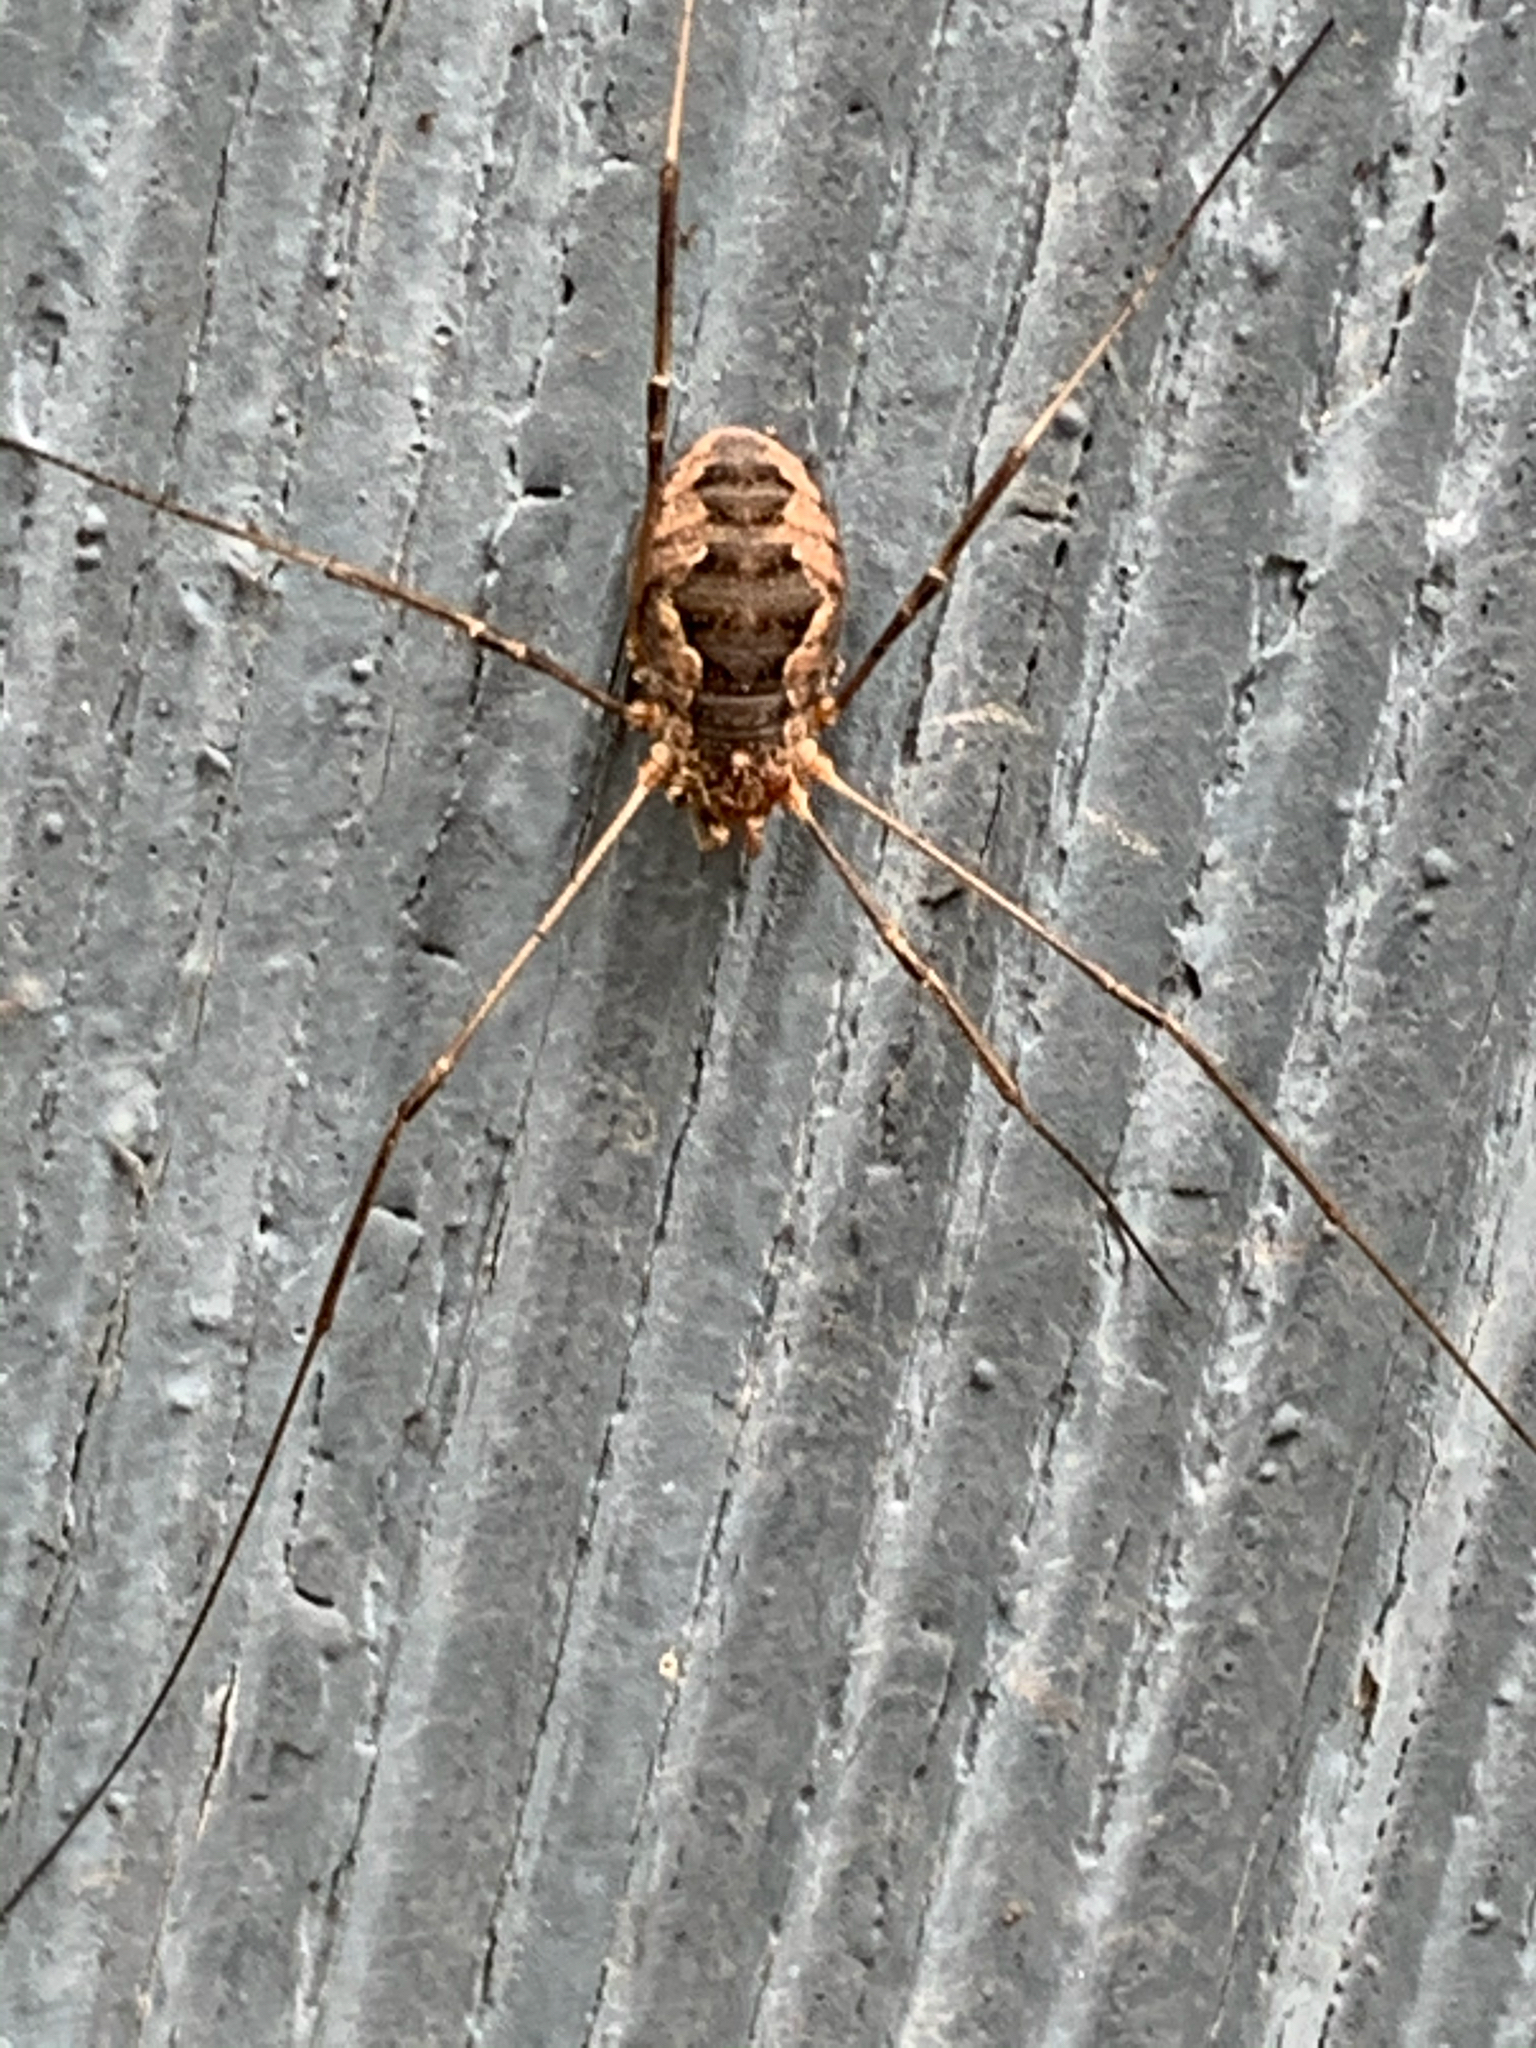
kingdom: Animalia
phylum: Arthropoda
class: Arachnida
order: Opiliones
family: Phalangiidae
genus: Phalangium
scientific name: Phalangium opilio
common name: Daddy longleg
